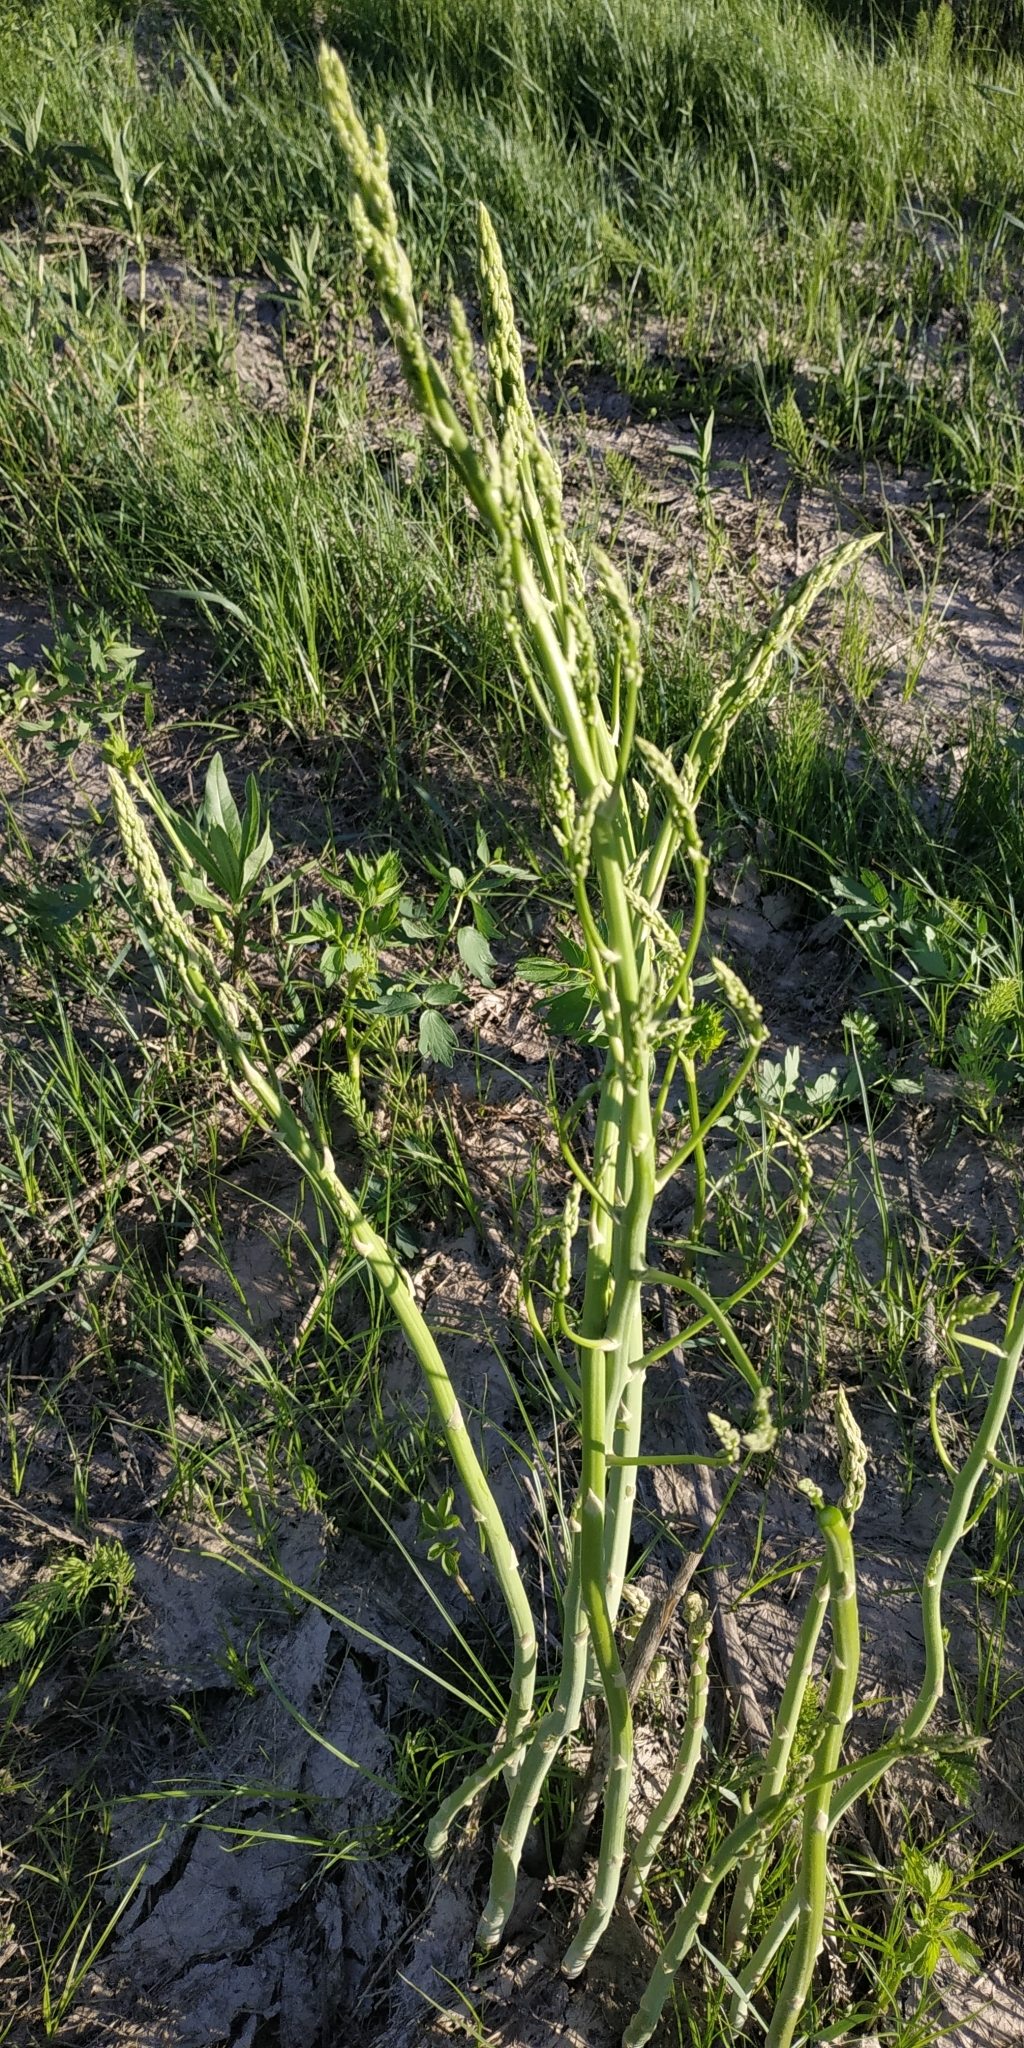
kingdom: Plantae
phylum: Tracheophyta
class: Liliopsida
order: Asparagales
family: Asparagaceae
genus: Asparagus
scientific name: Asparagus officinalis
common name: Garden asparagus
